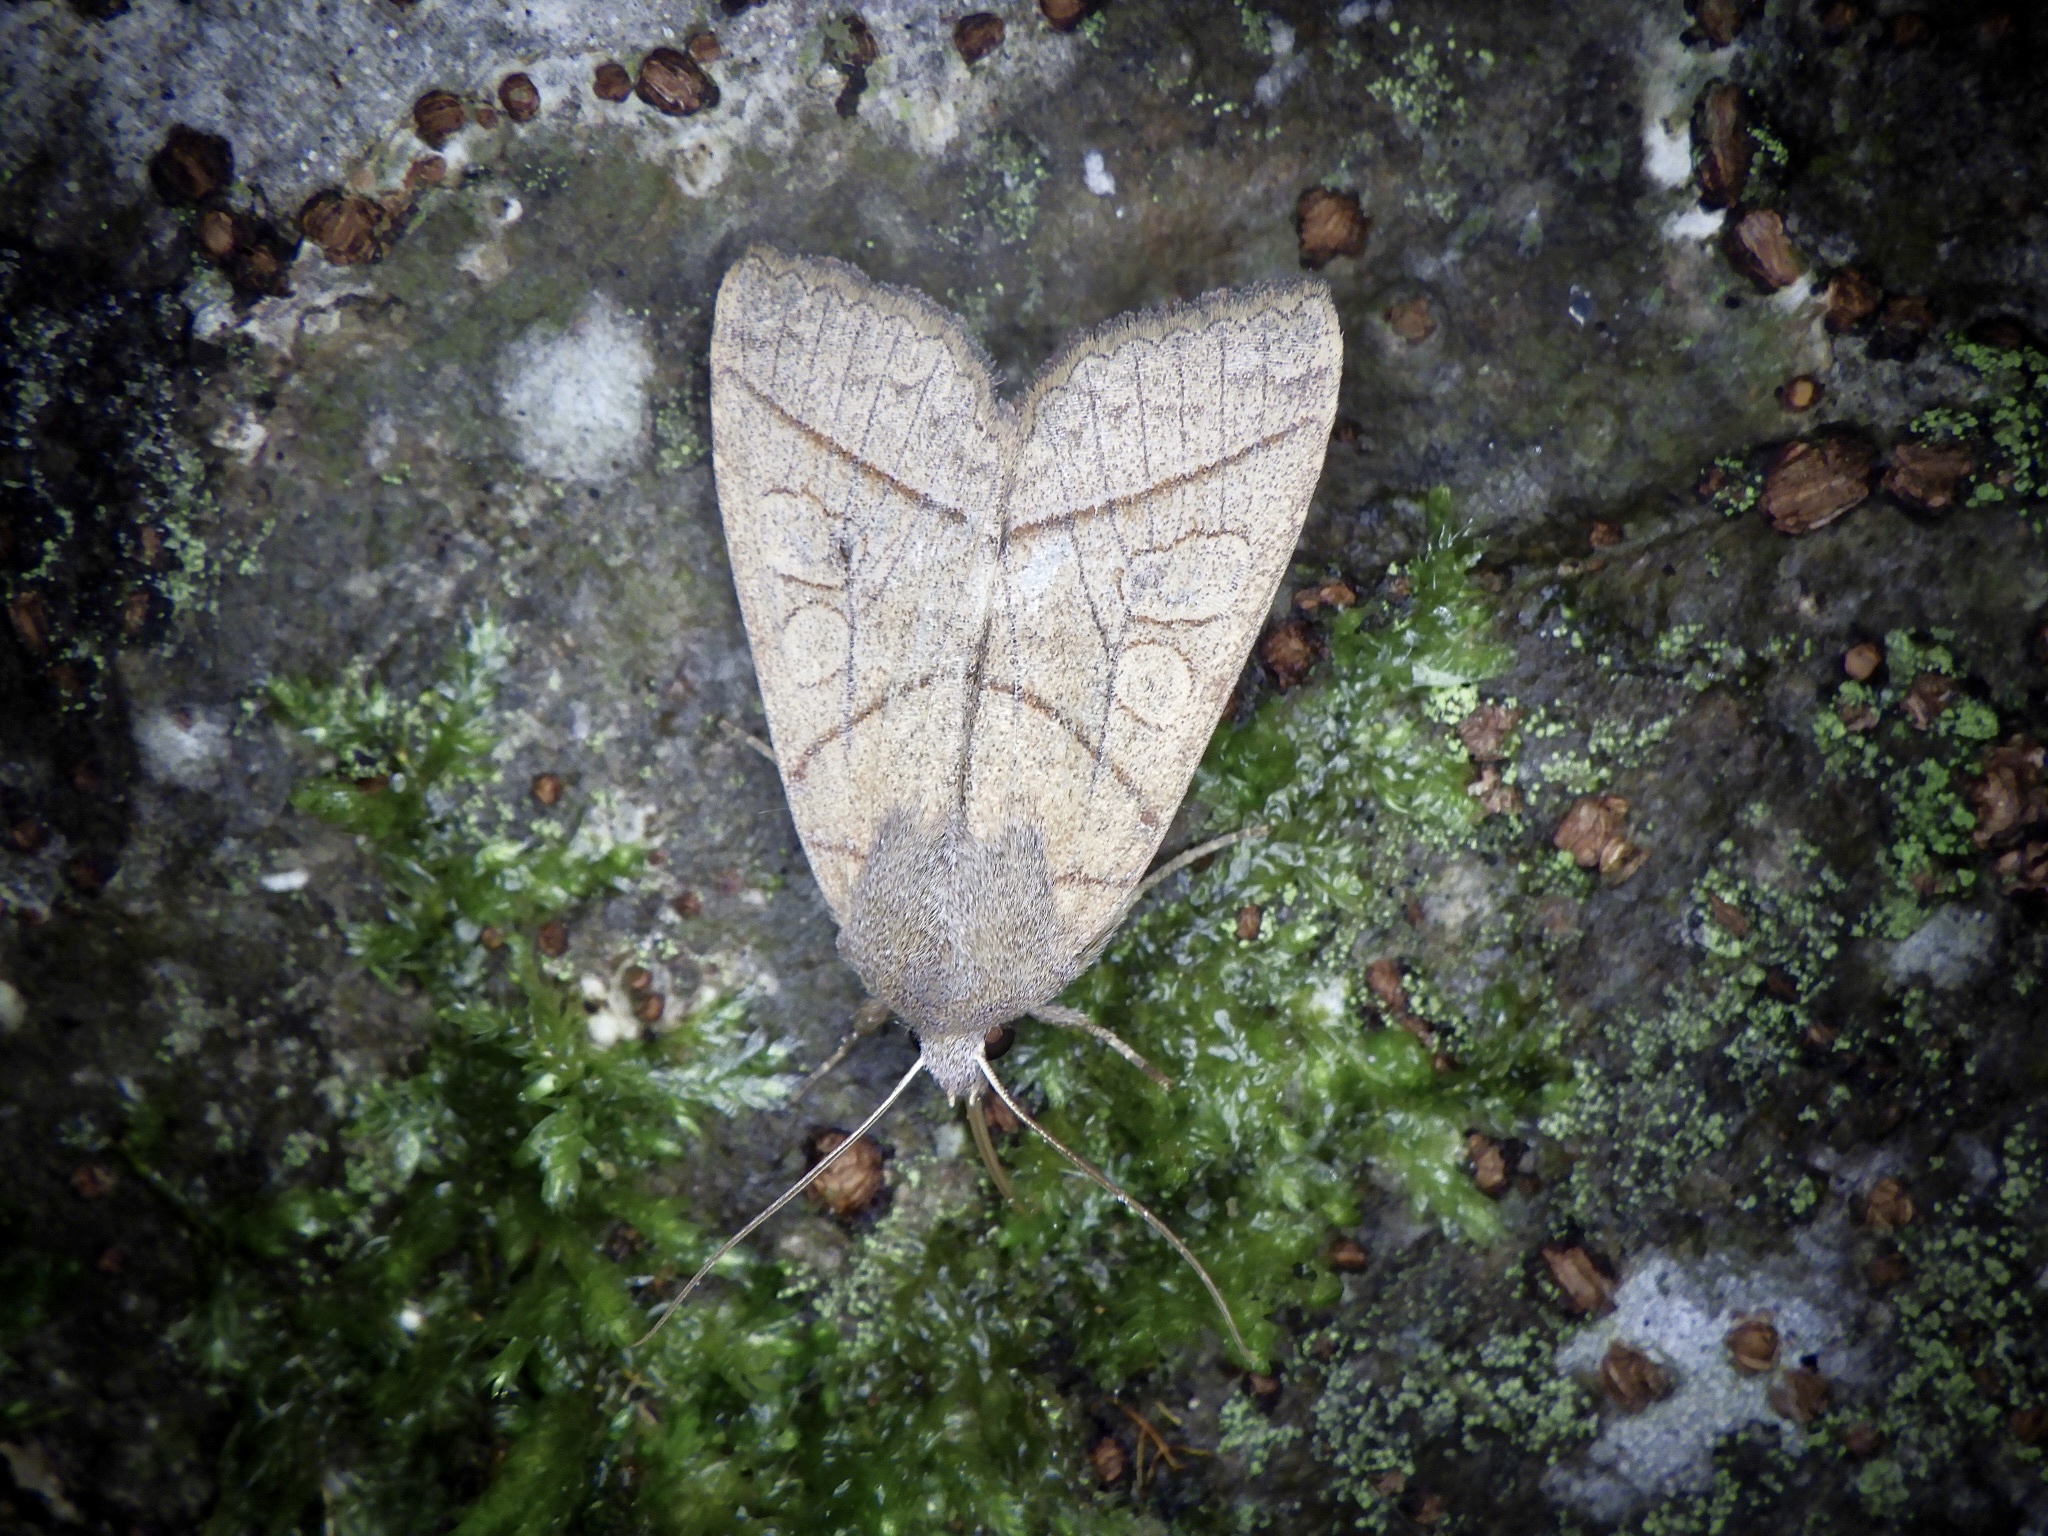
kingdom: Animalia
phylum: Arthropoda
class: Insecta
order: Lepidoptera
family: Noctuidae
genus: Telorta
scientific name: Telorta divergens
